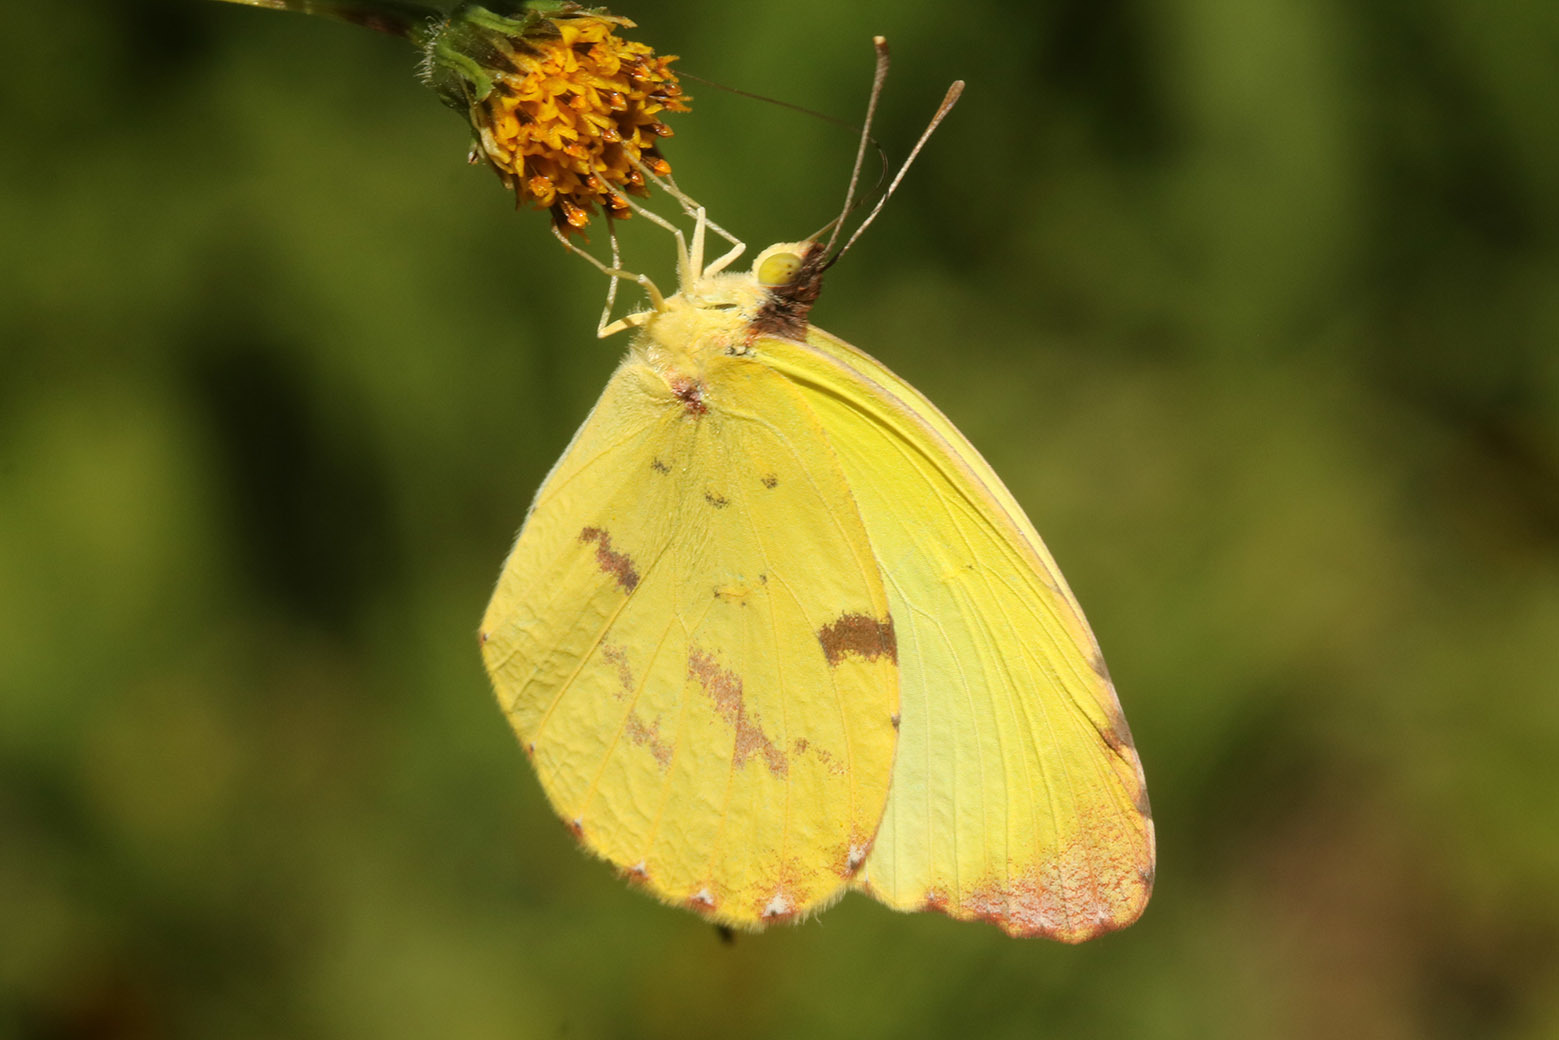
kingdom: Animalia
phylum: Arthropoda
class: Insecta
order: Lepidoptera
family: Pieridae
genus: Teriocolias
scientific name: Teriocolias
